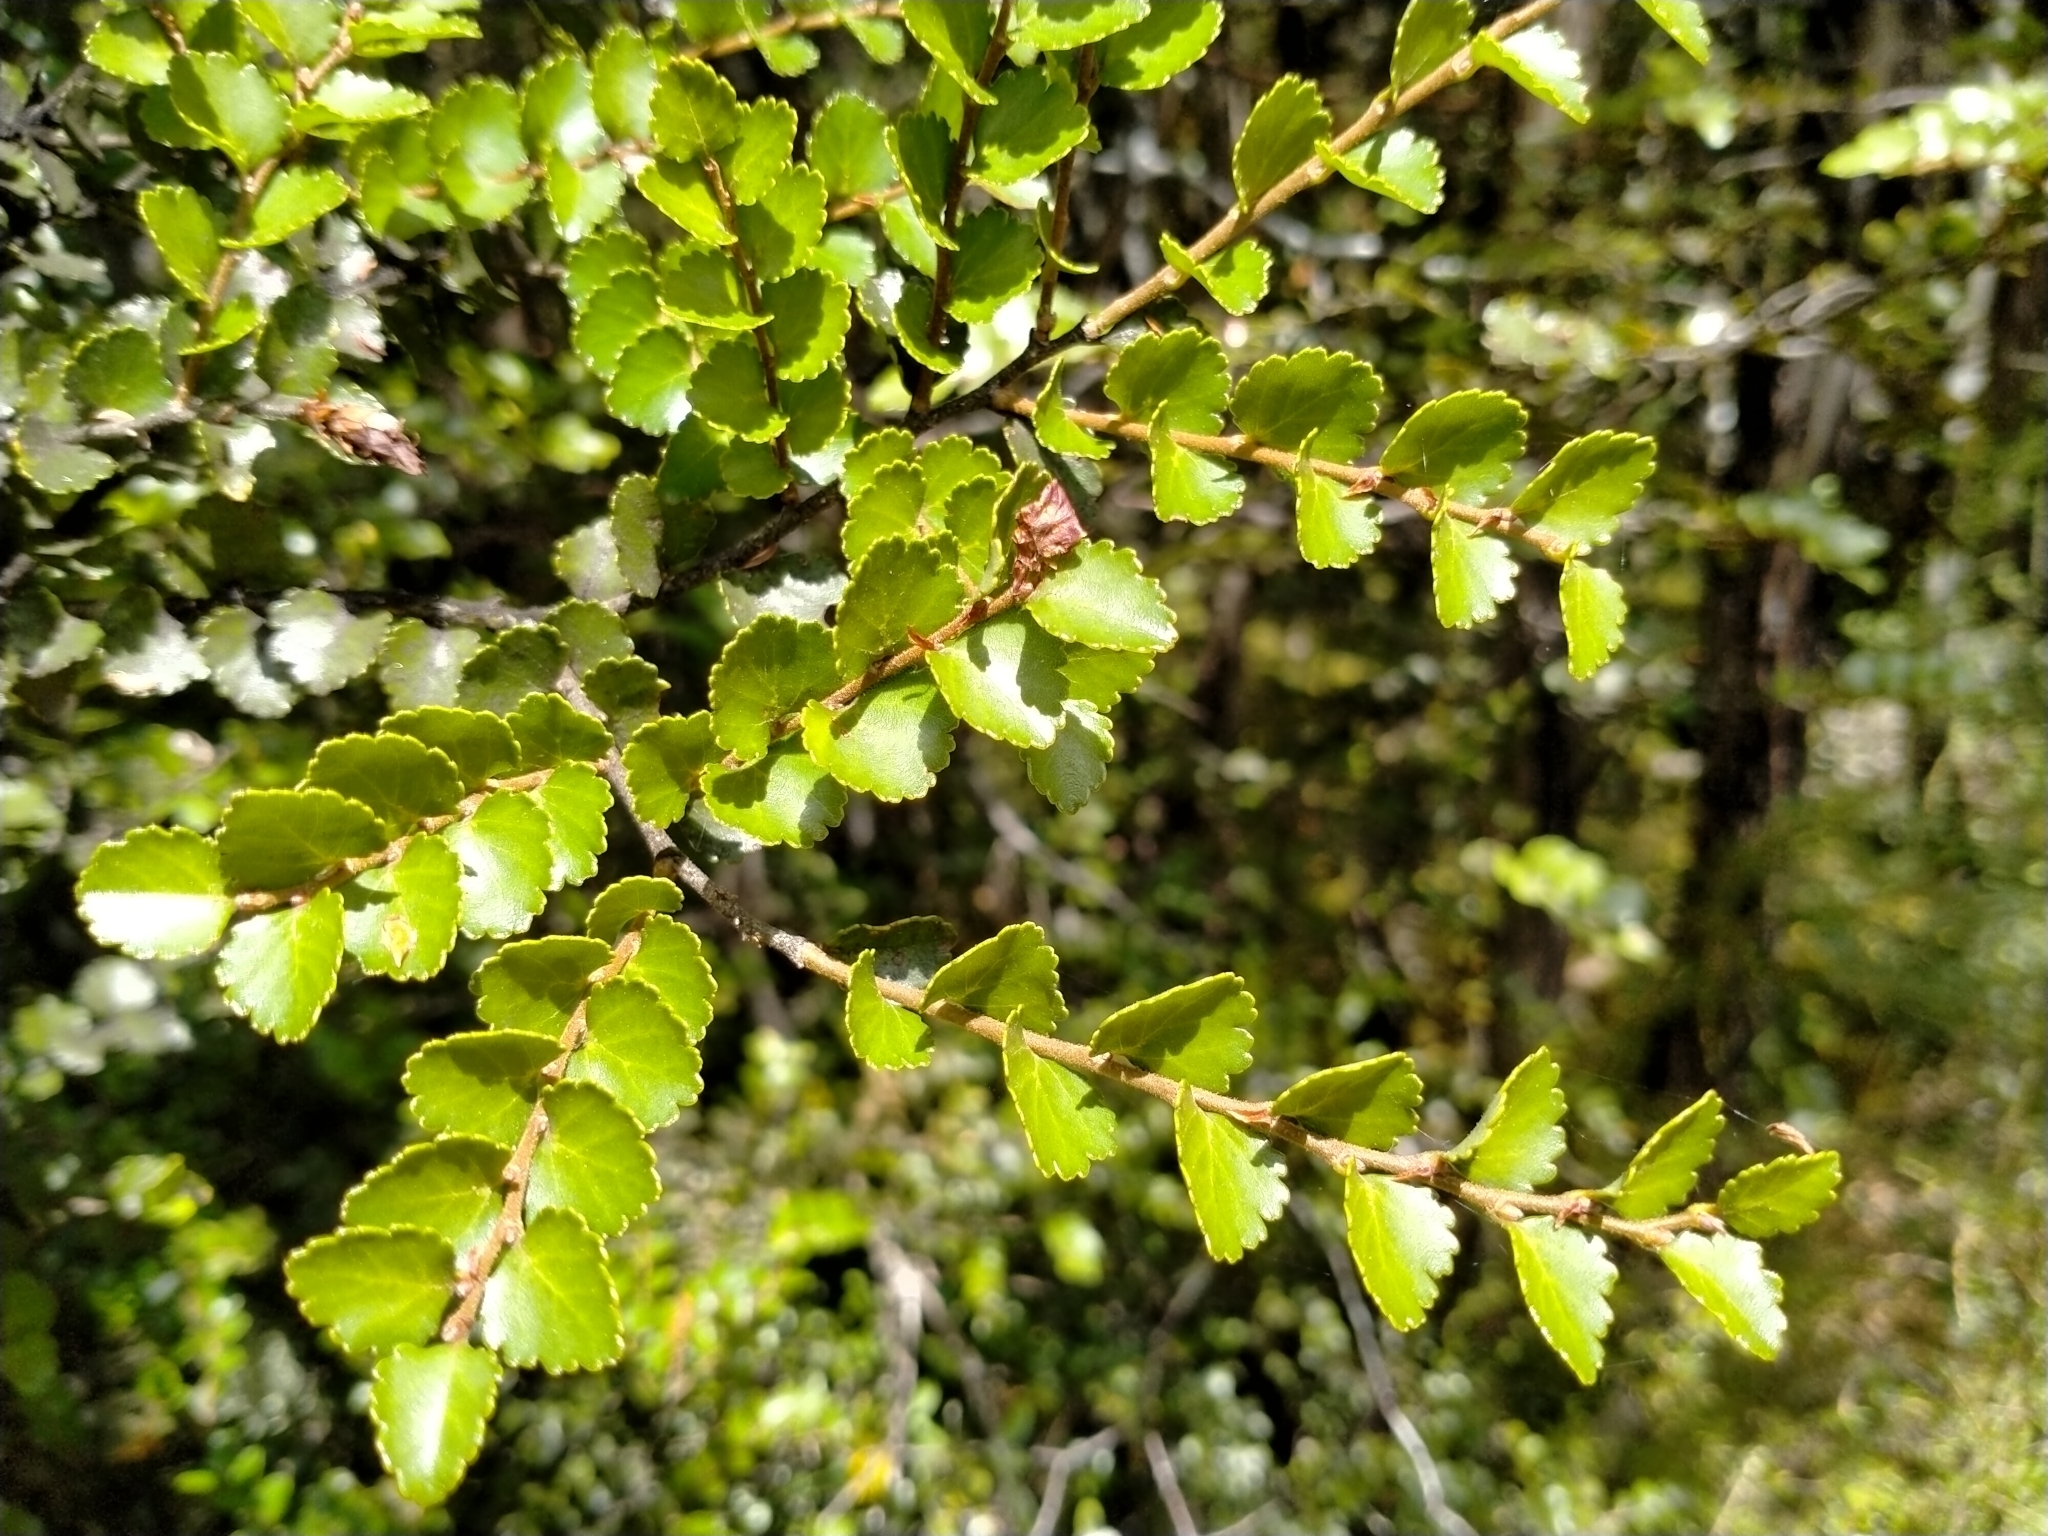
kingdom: Plantae
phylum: Tracheophyta
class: Magnoliopsida
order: Fagales
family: Nothofagaceae
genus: Nothofagus
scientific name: Nothofagus menziesii
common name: Silver beech
